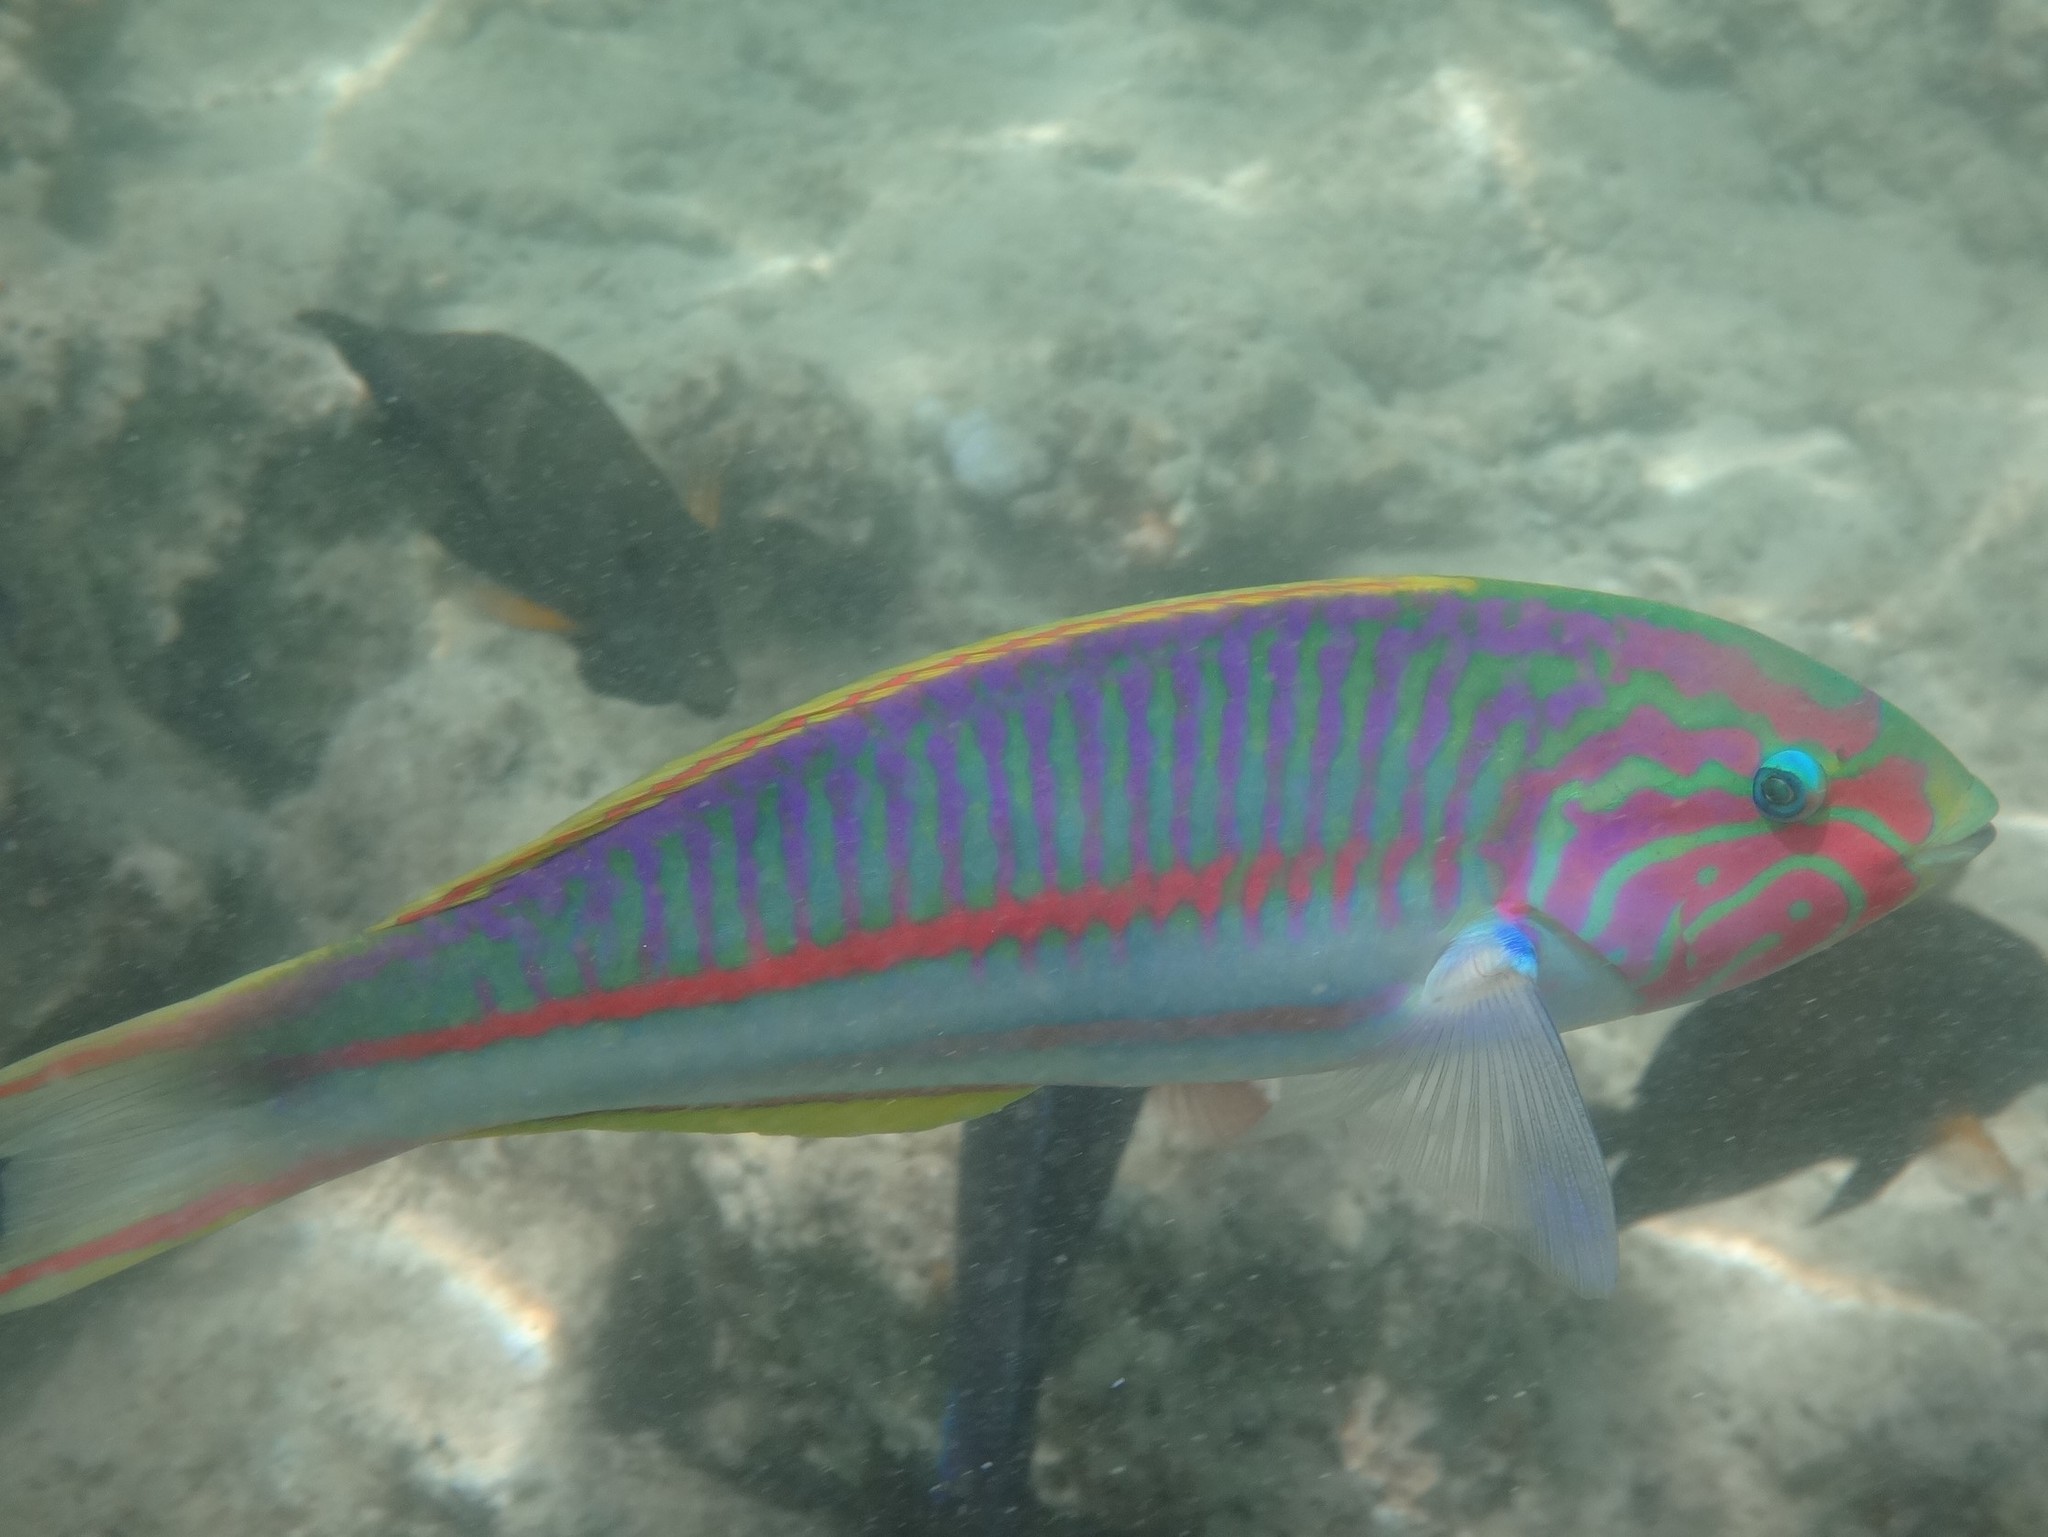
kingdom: Animalia
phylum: Chordata
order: Perciformes
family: Labridae
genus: Thalassoma
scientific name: Thalassoma rueppellii
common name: Klunzinger's wrasse
